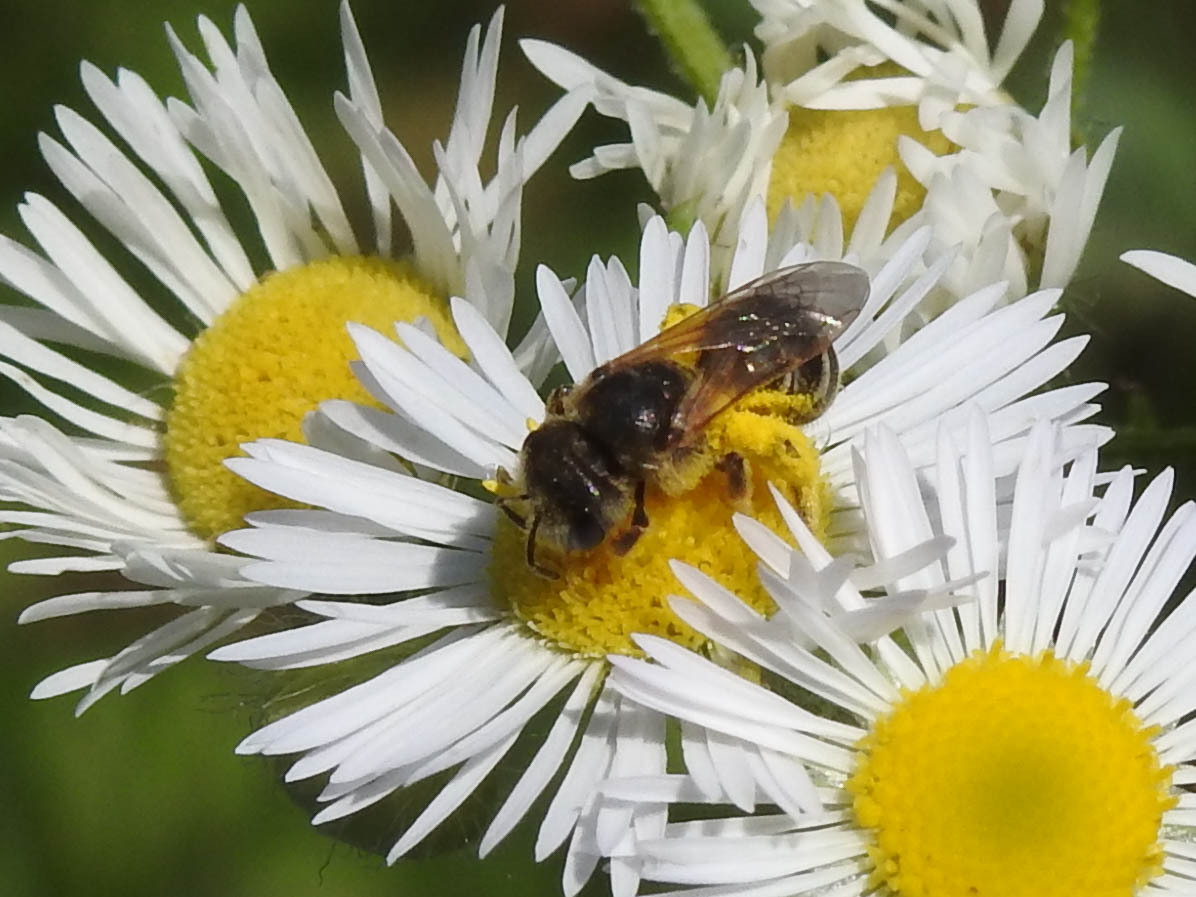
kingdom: Animalia
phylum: Arthropoda
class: Insecta
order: Hymenoptera
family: Halictidae
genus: Halictus
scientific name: Halictus ligatus
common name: Ligated furrow bee
